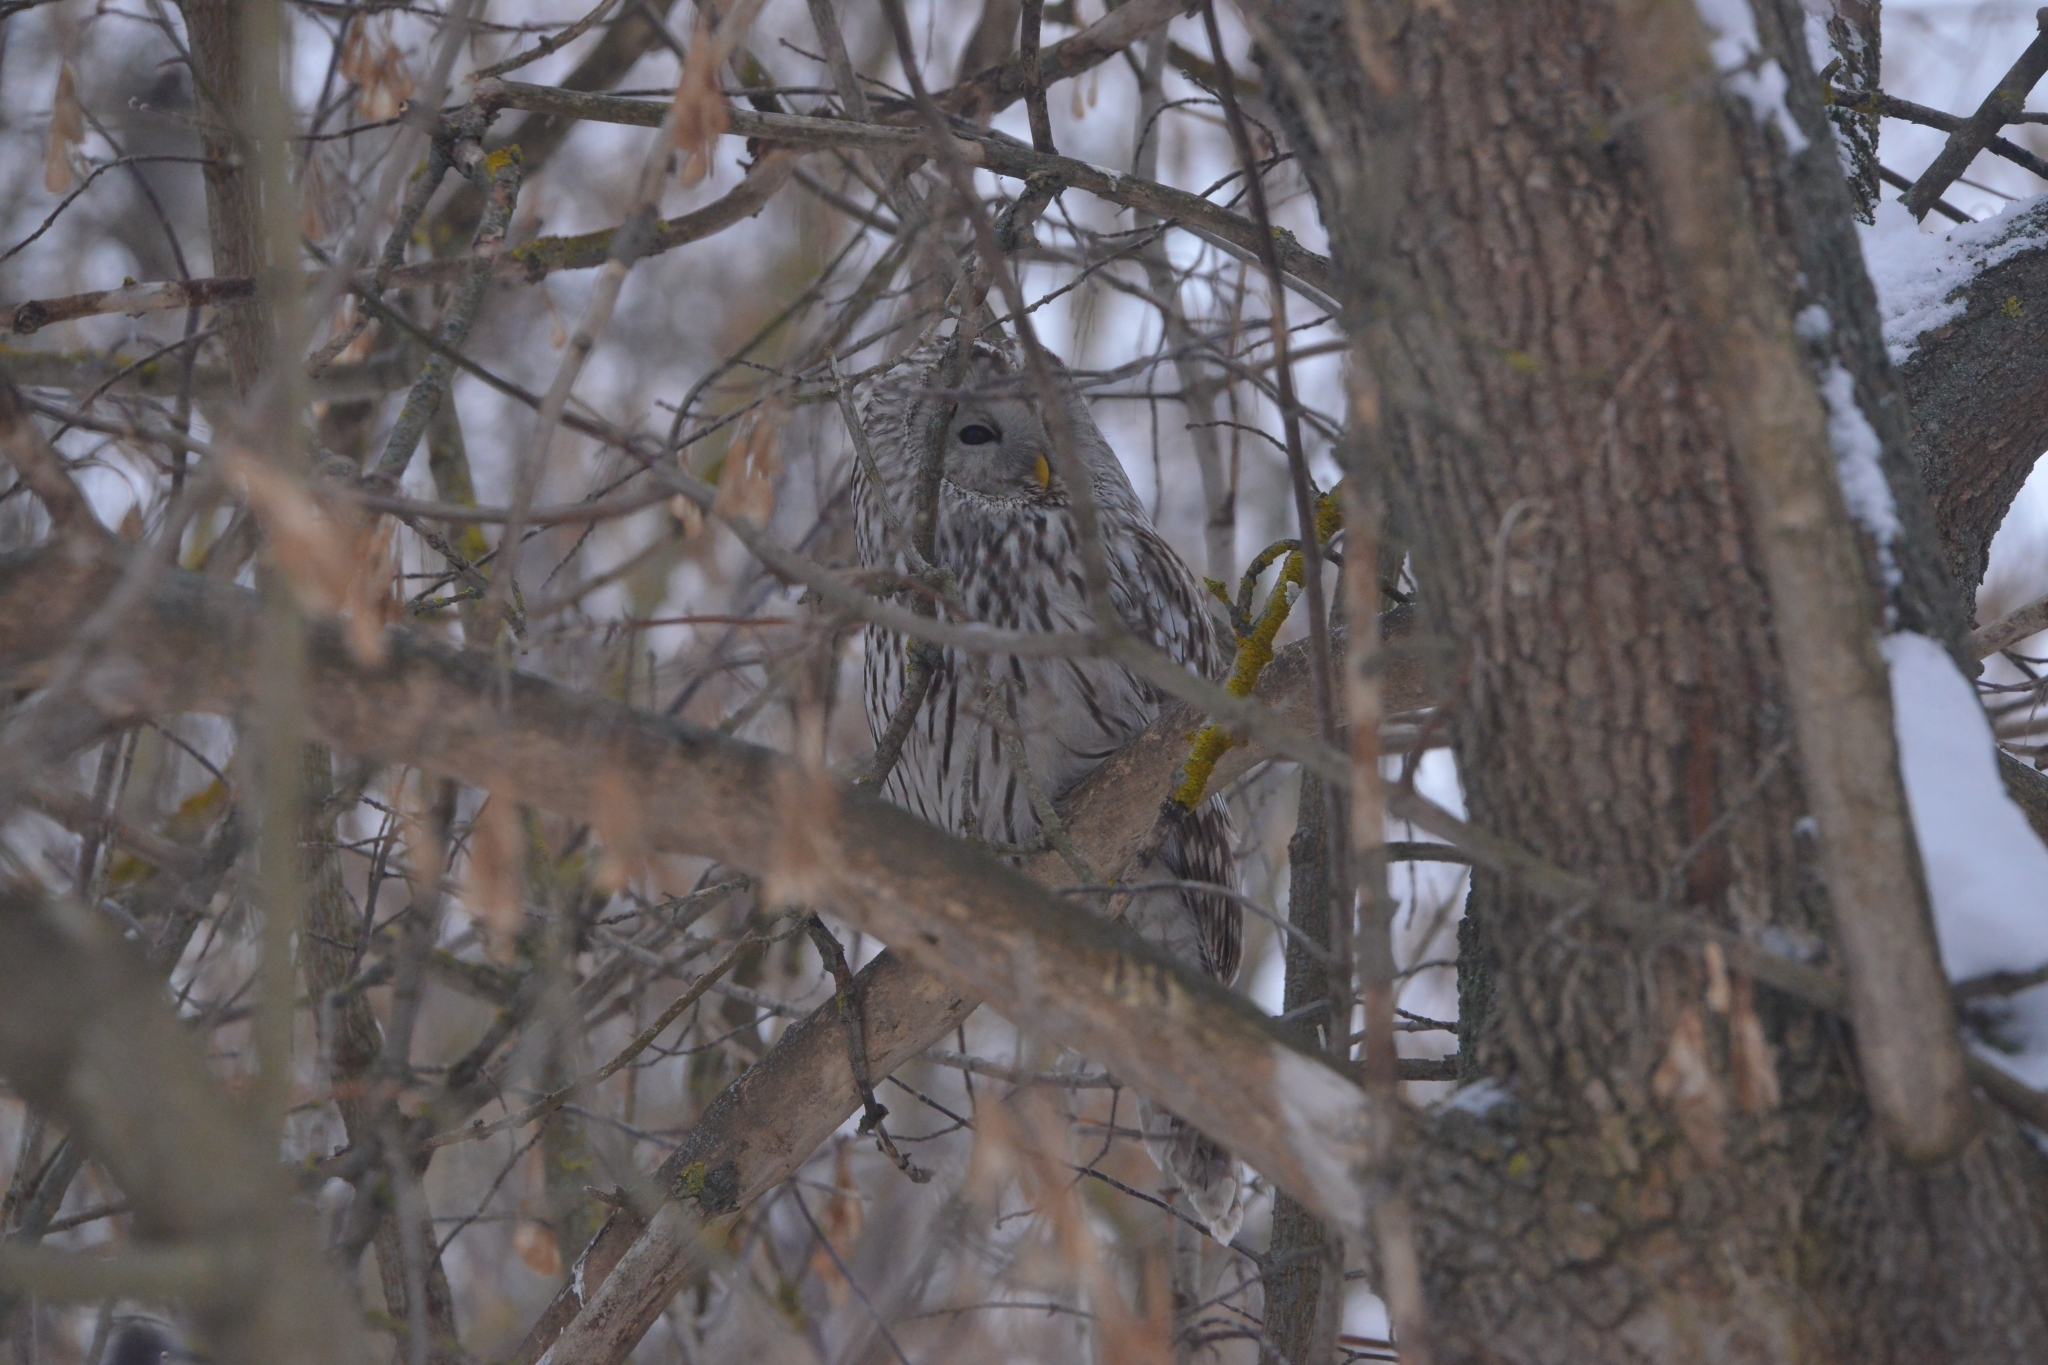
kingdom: Animalia
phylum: Chordata
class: Aves
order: Strigiformes
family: Strigidae
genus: Strix
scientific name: Strix uralensis
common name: Ural owl
